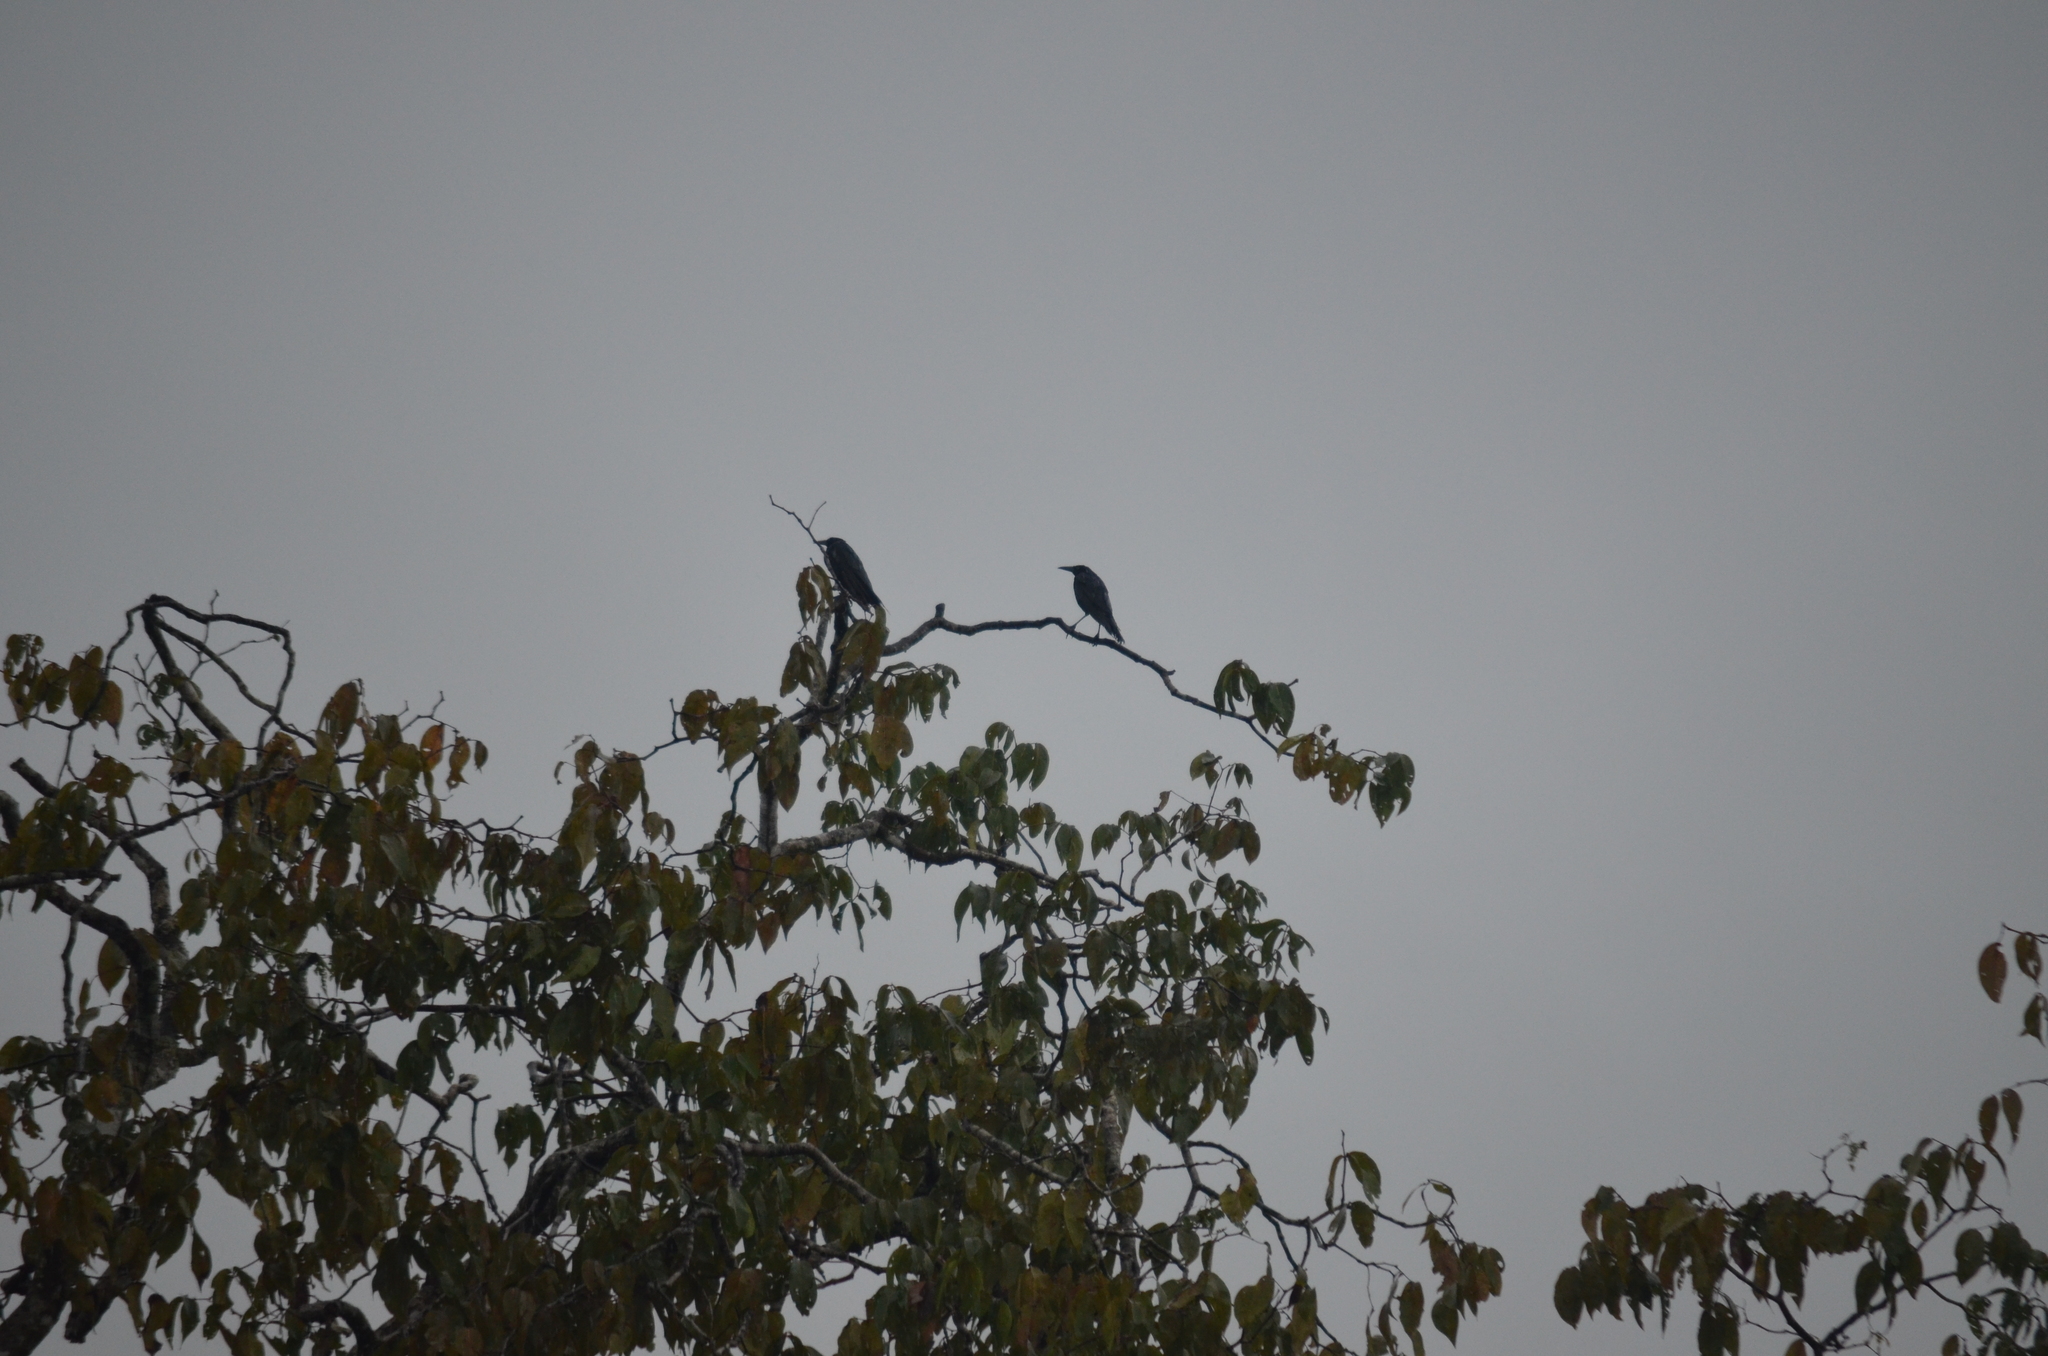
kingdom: Animalia
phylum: Chordata
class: Aves
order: Passeriformes
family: Icteridae
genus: Molothrus
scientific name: Molothrus oryzivorus
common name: Giant cowbird
